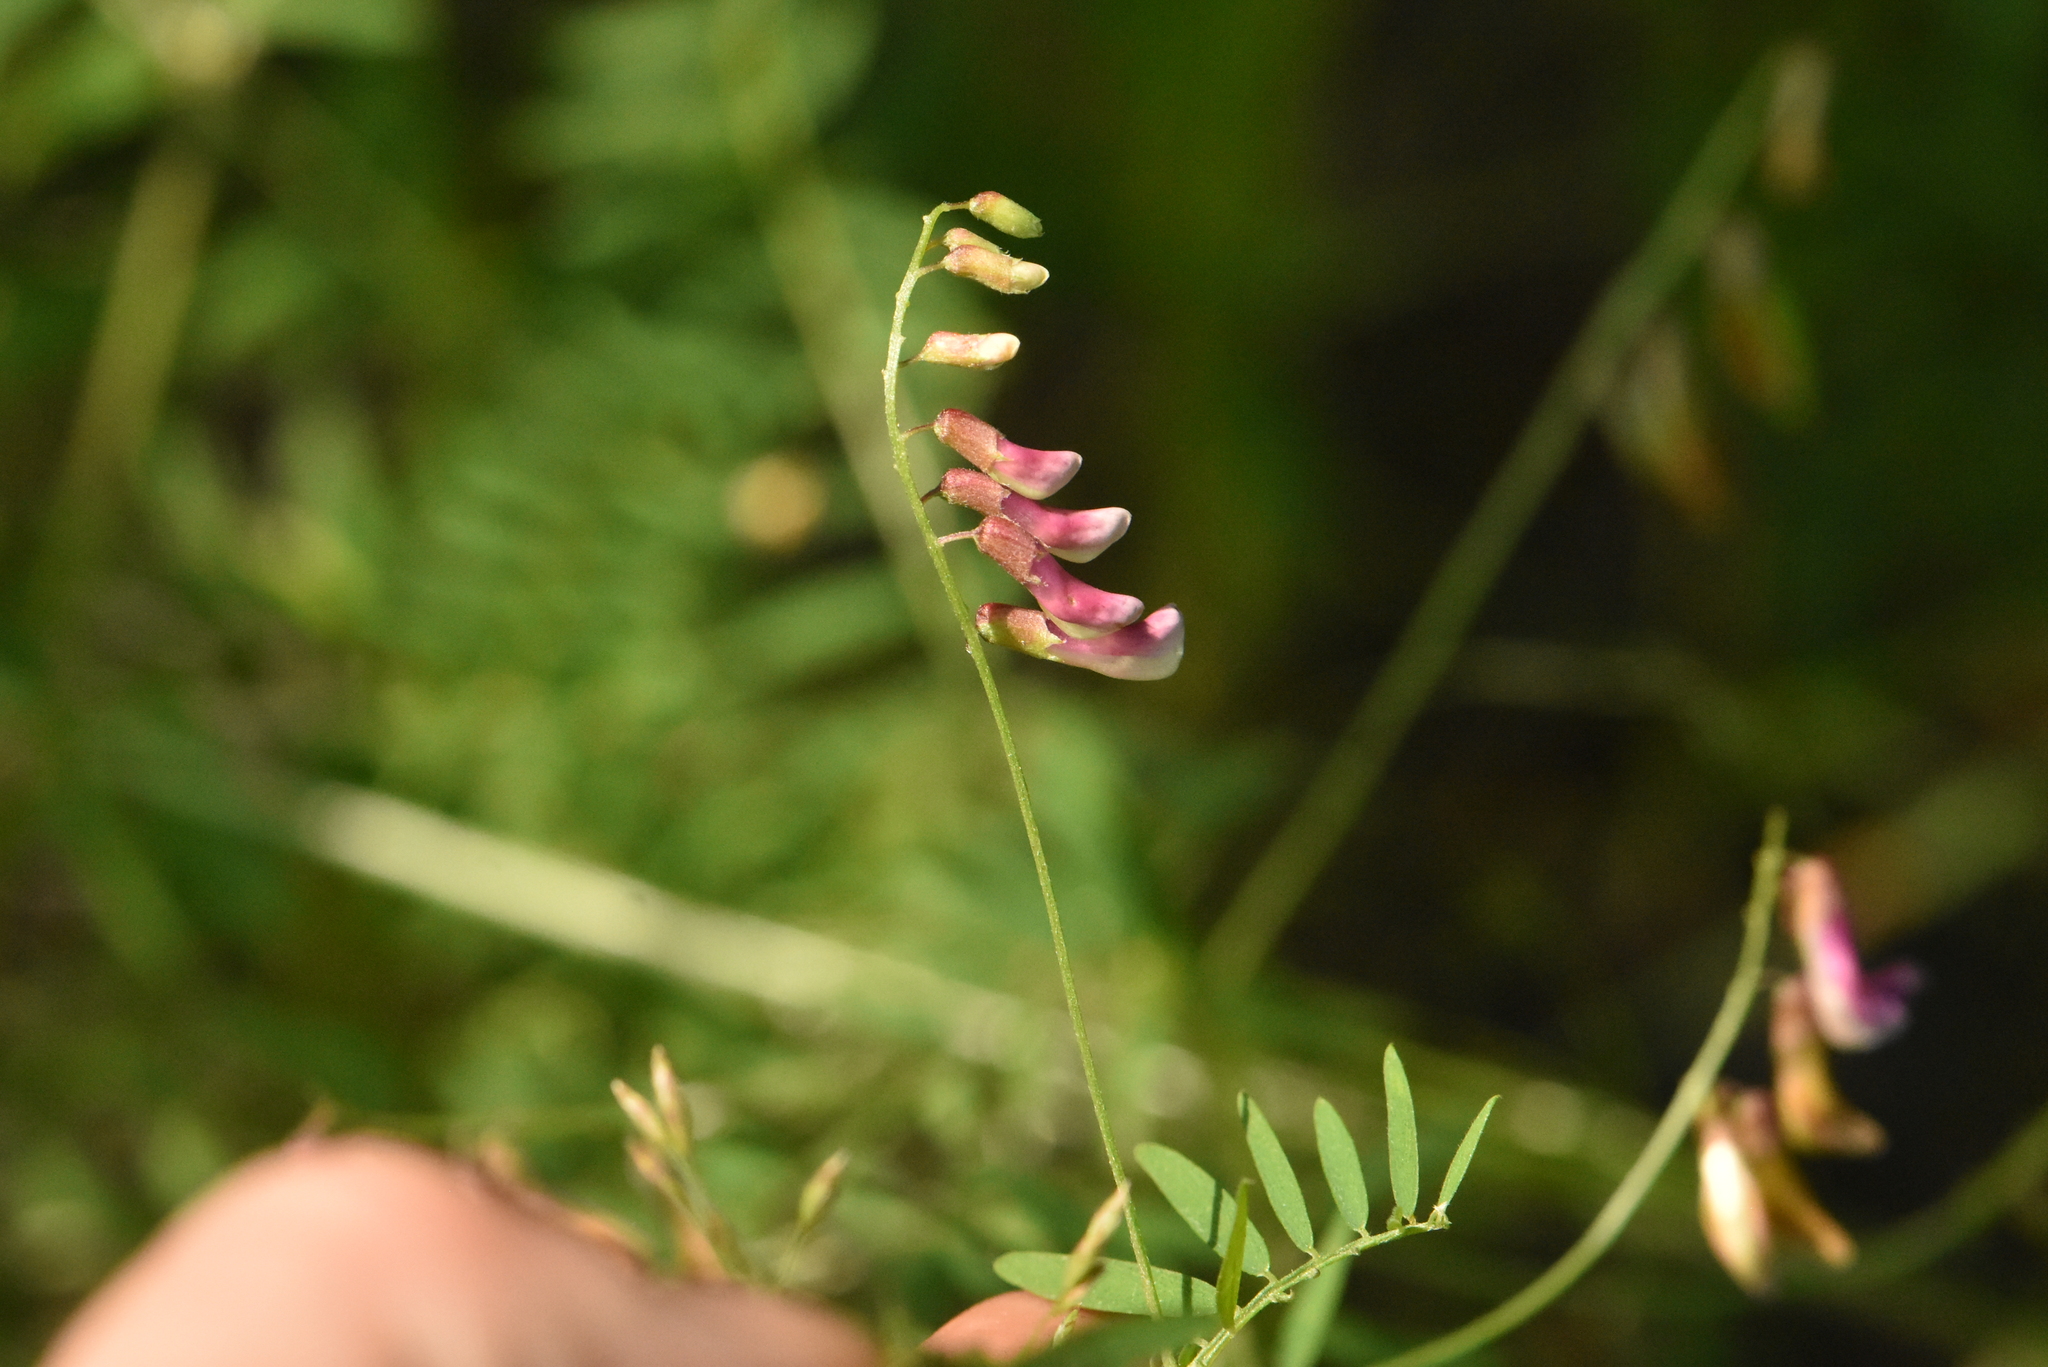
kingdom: Plantae
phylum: Tracheophyta
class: Magnoliopsida
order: Fabales
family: Fabaceae
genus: Vicia
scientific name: Vicia megalotropis
